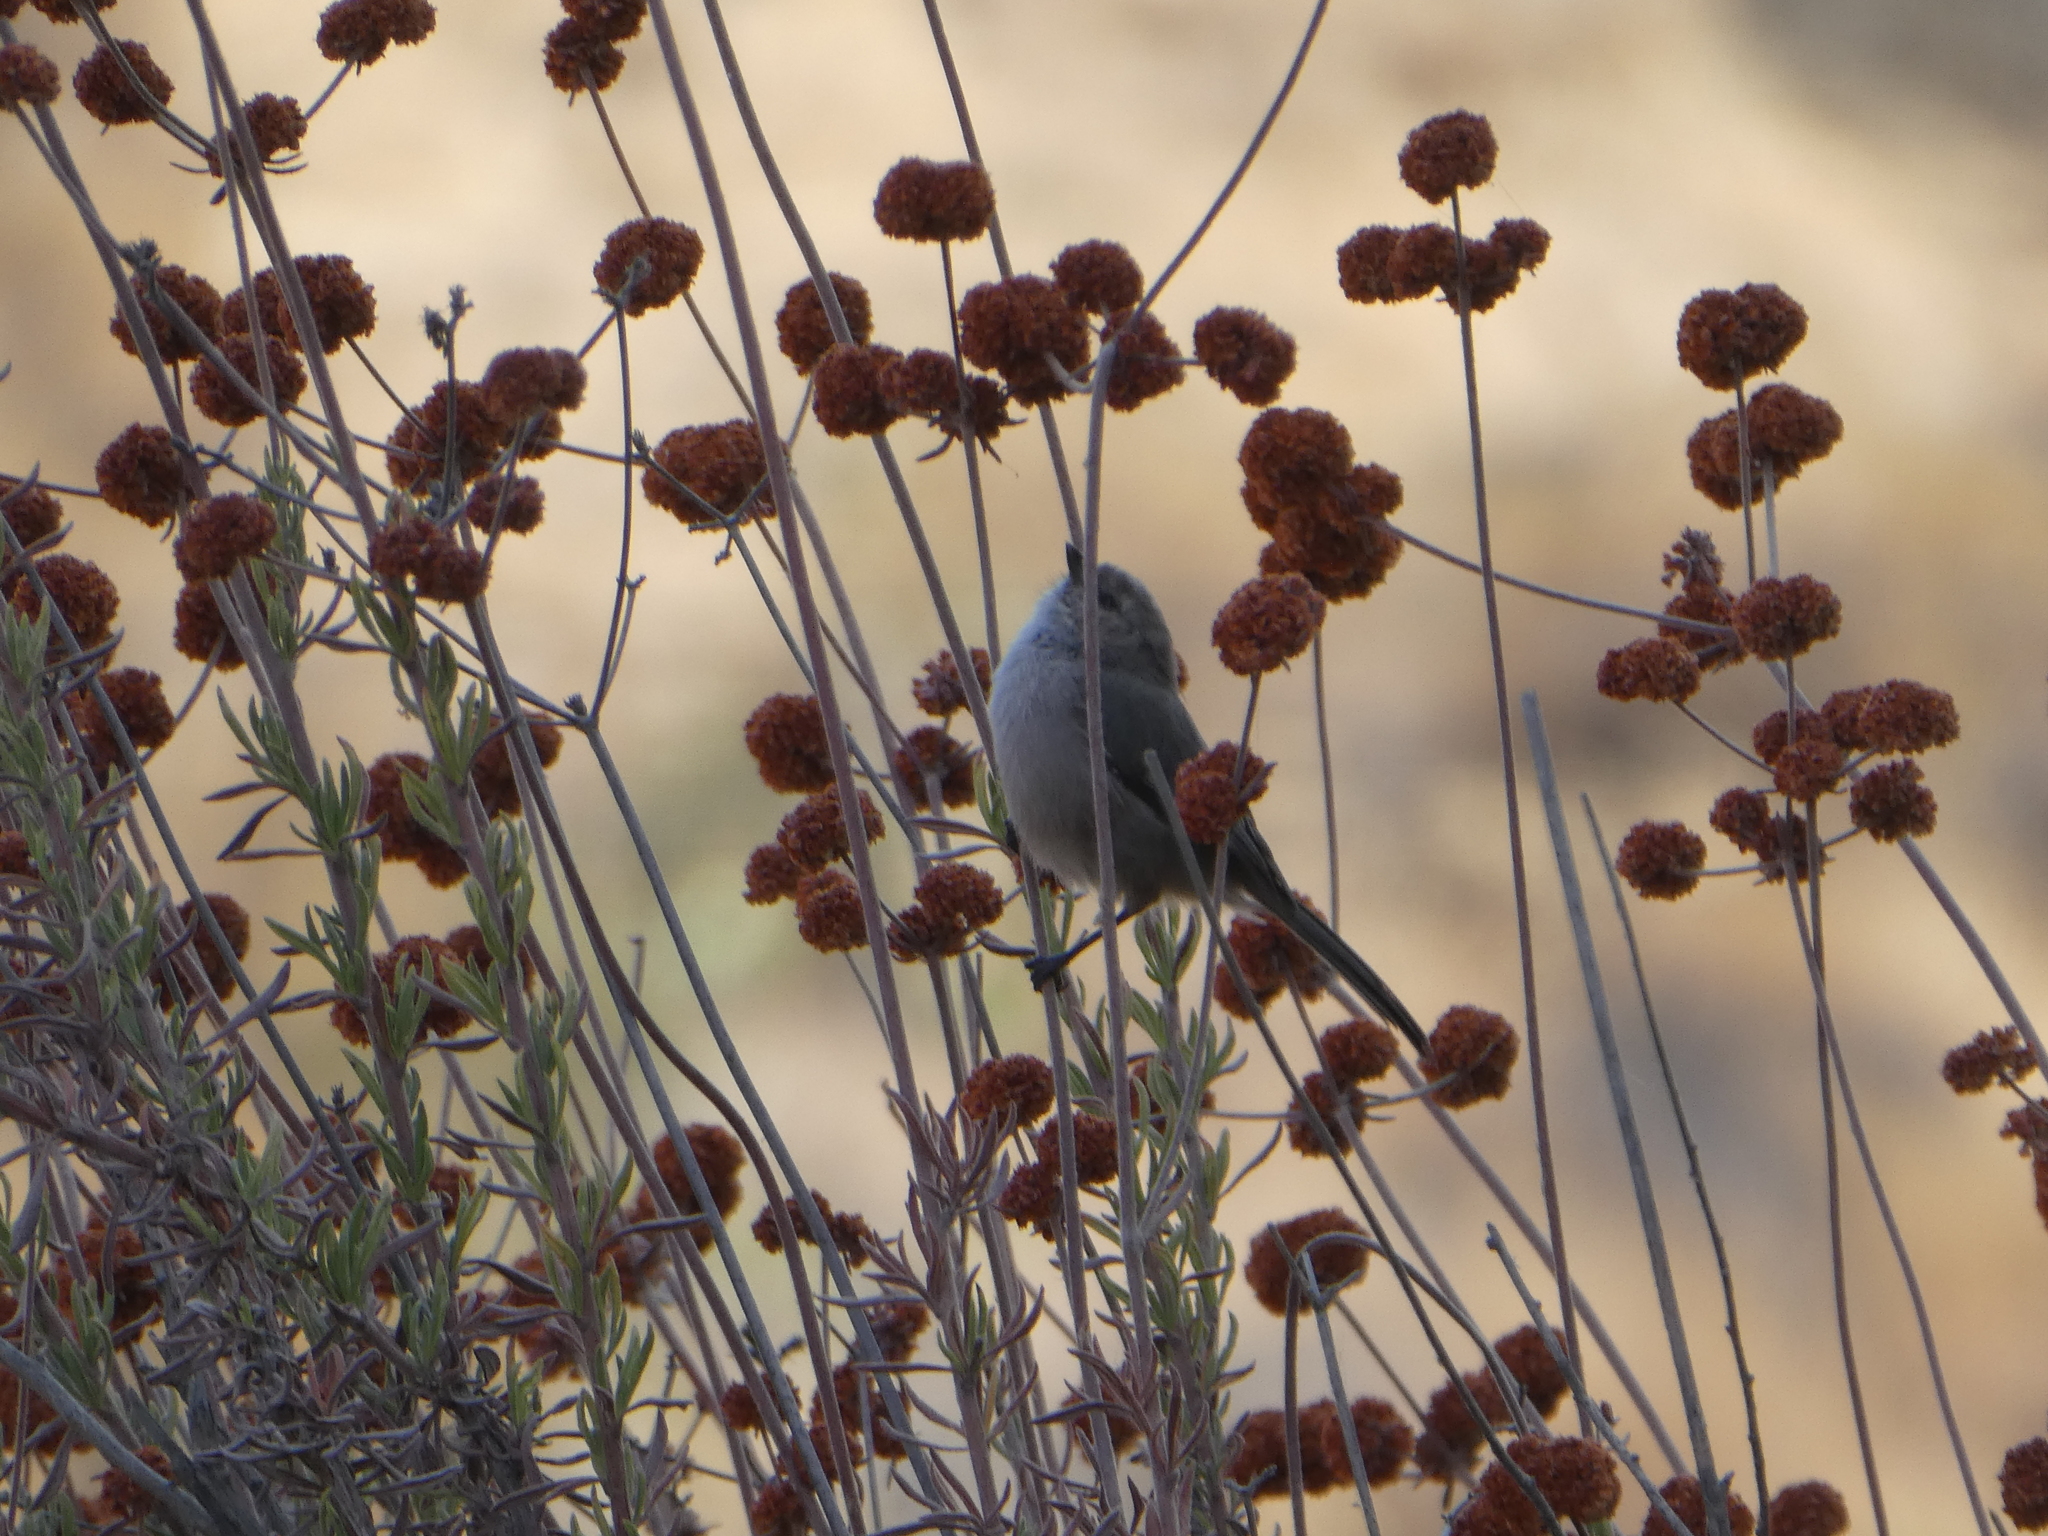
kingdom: Animalia
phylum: Chordata
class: Aves
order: Passeriformes
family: Aegithalidae
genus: Psaltriparus
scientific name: Psaltriparus minimus
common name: American bushtit
